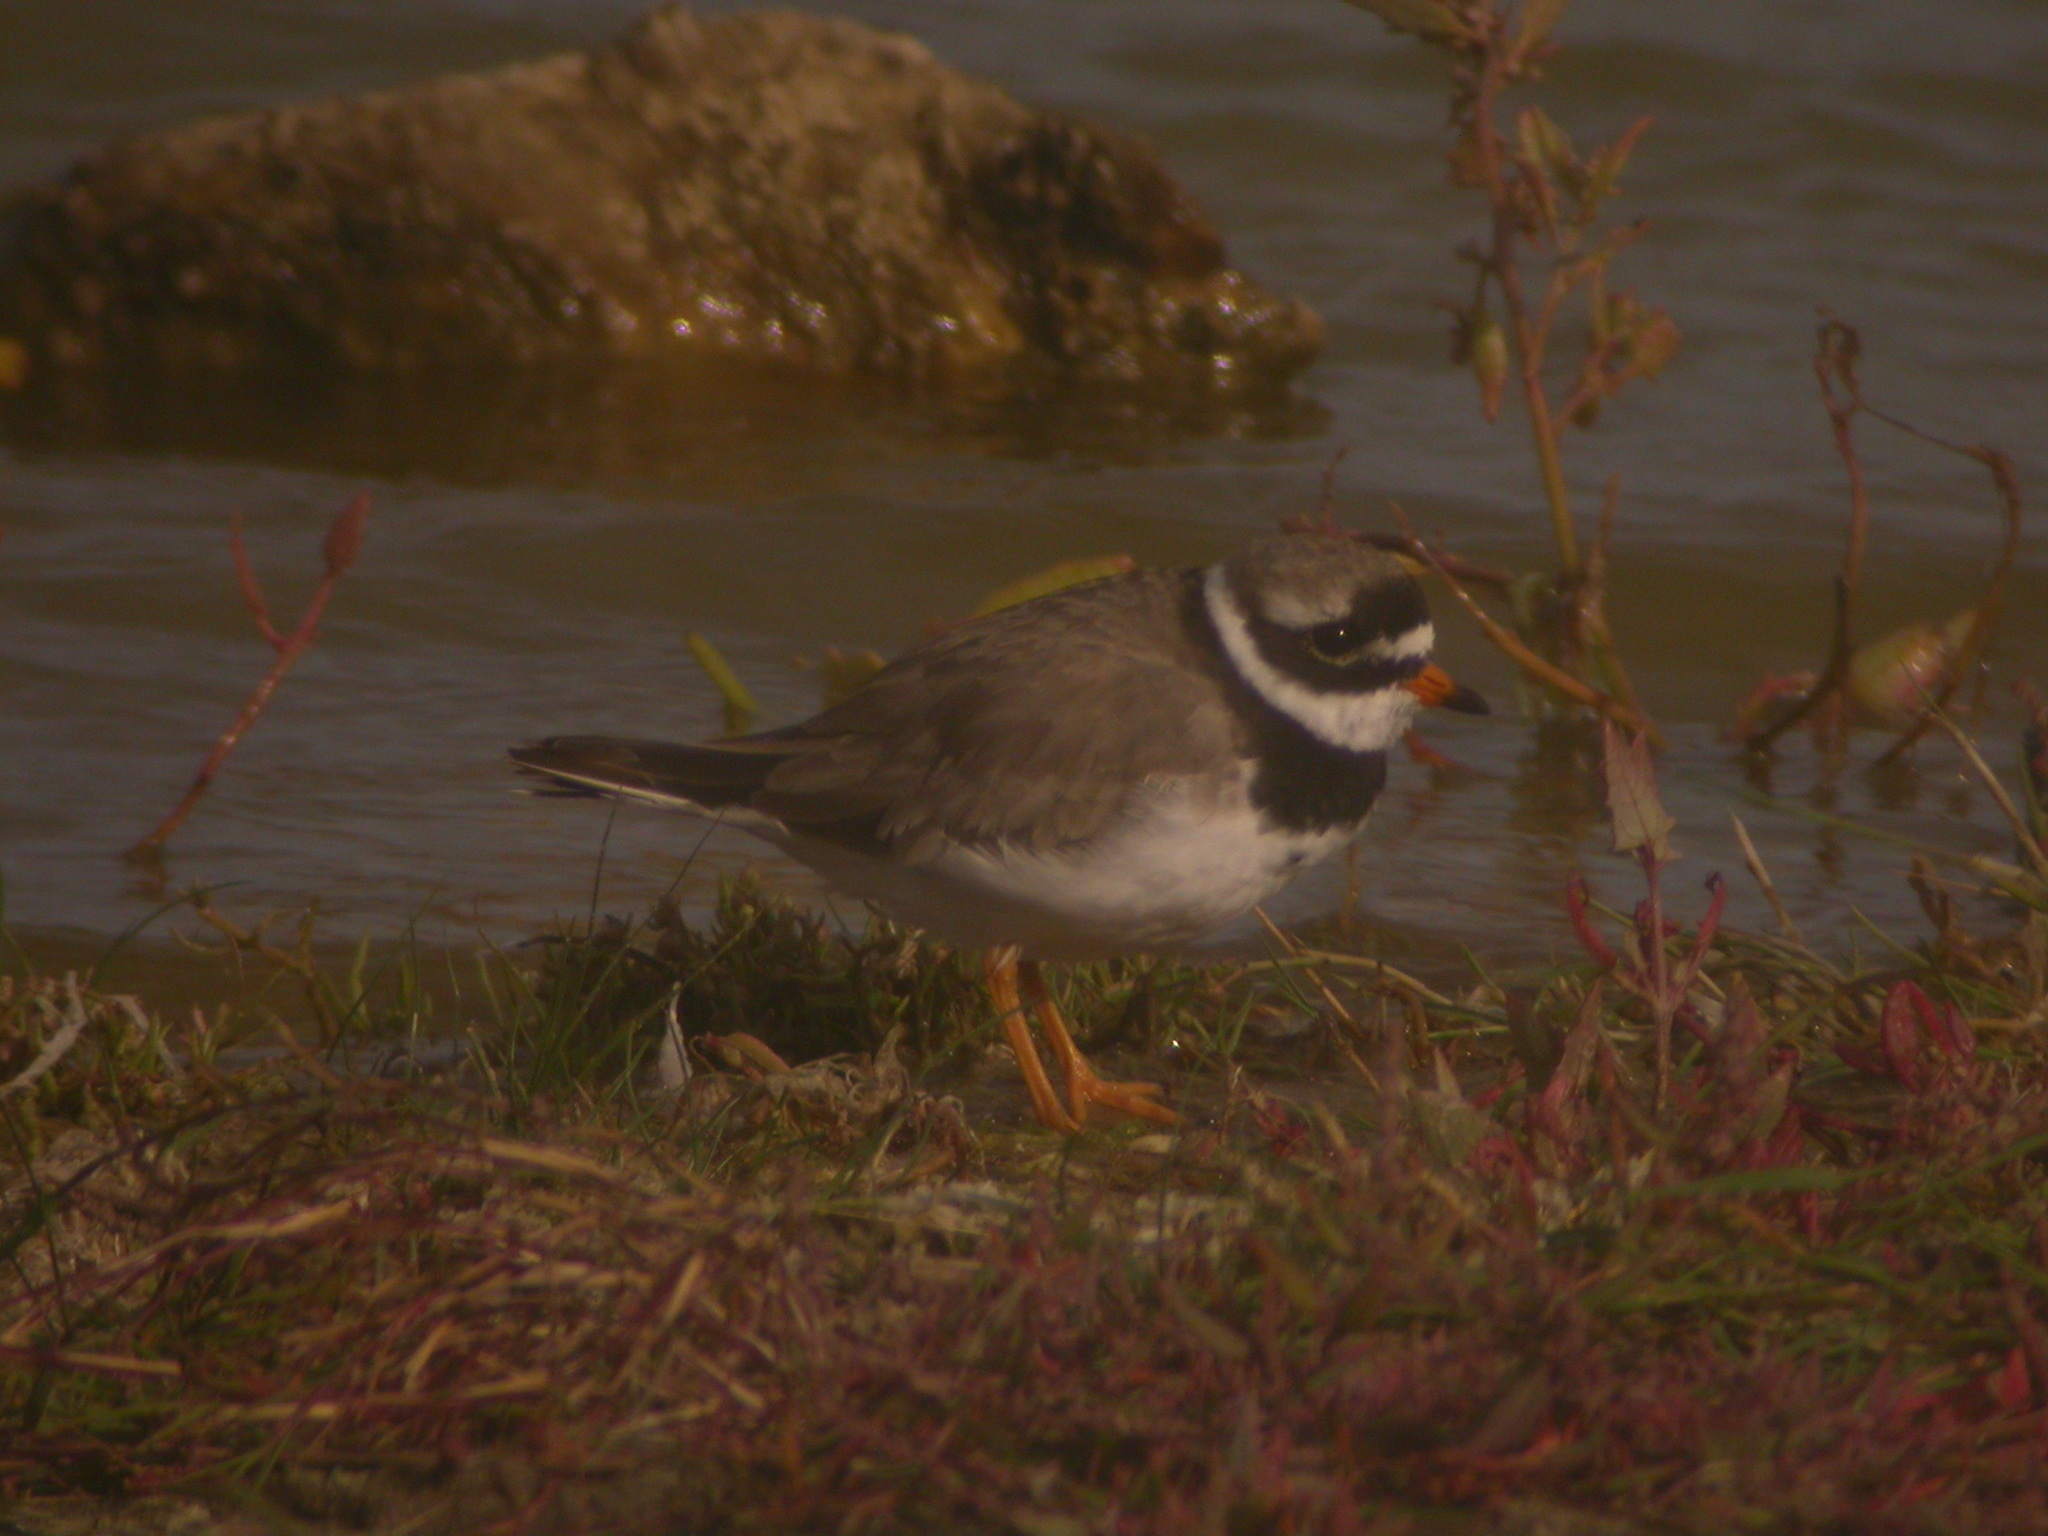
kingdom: Animalia
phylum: Chordata
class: Aves
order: Charadriiformes
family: Charadriidae
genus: Charadrius
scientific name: Charadrius hiaticula
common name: Common ringed plover
